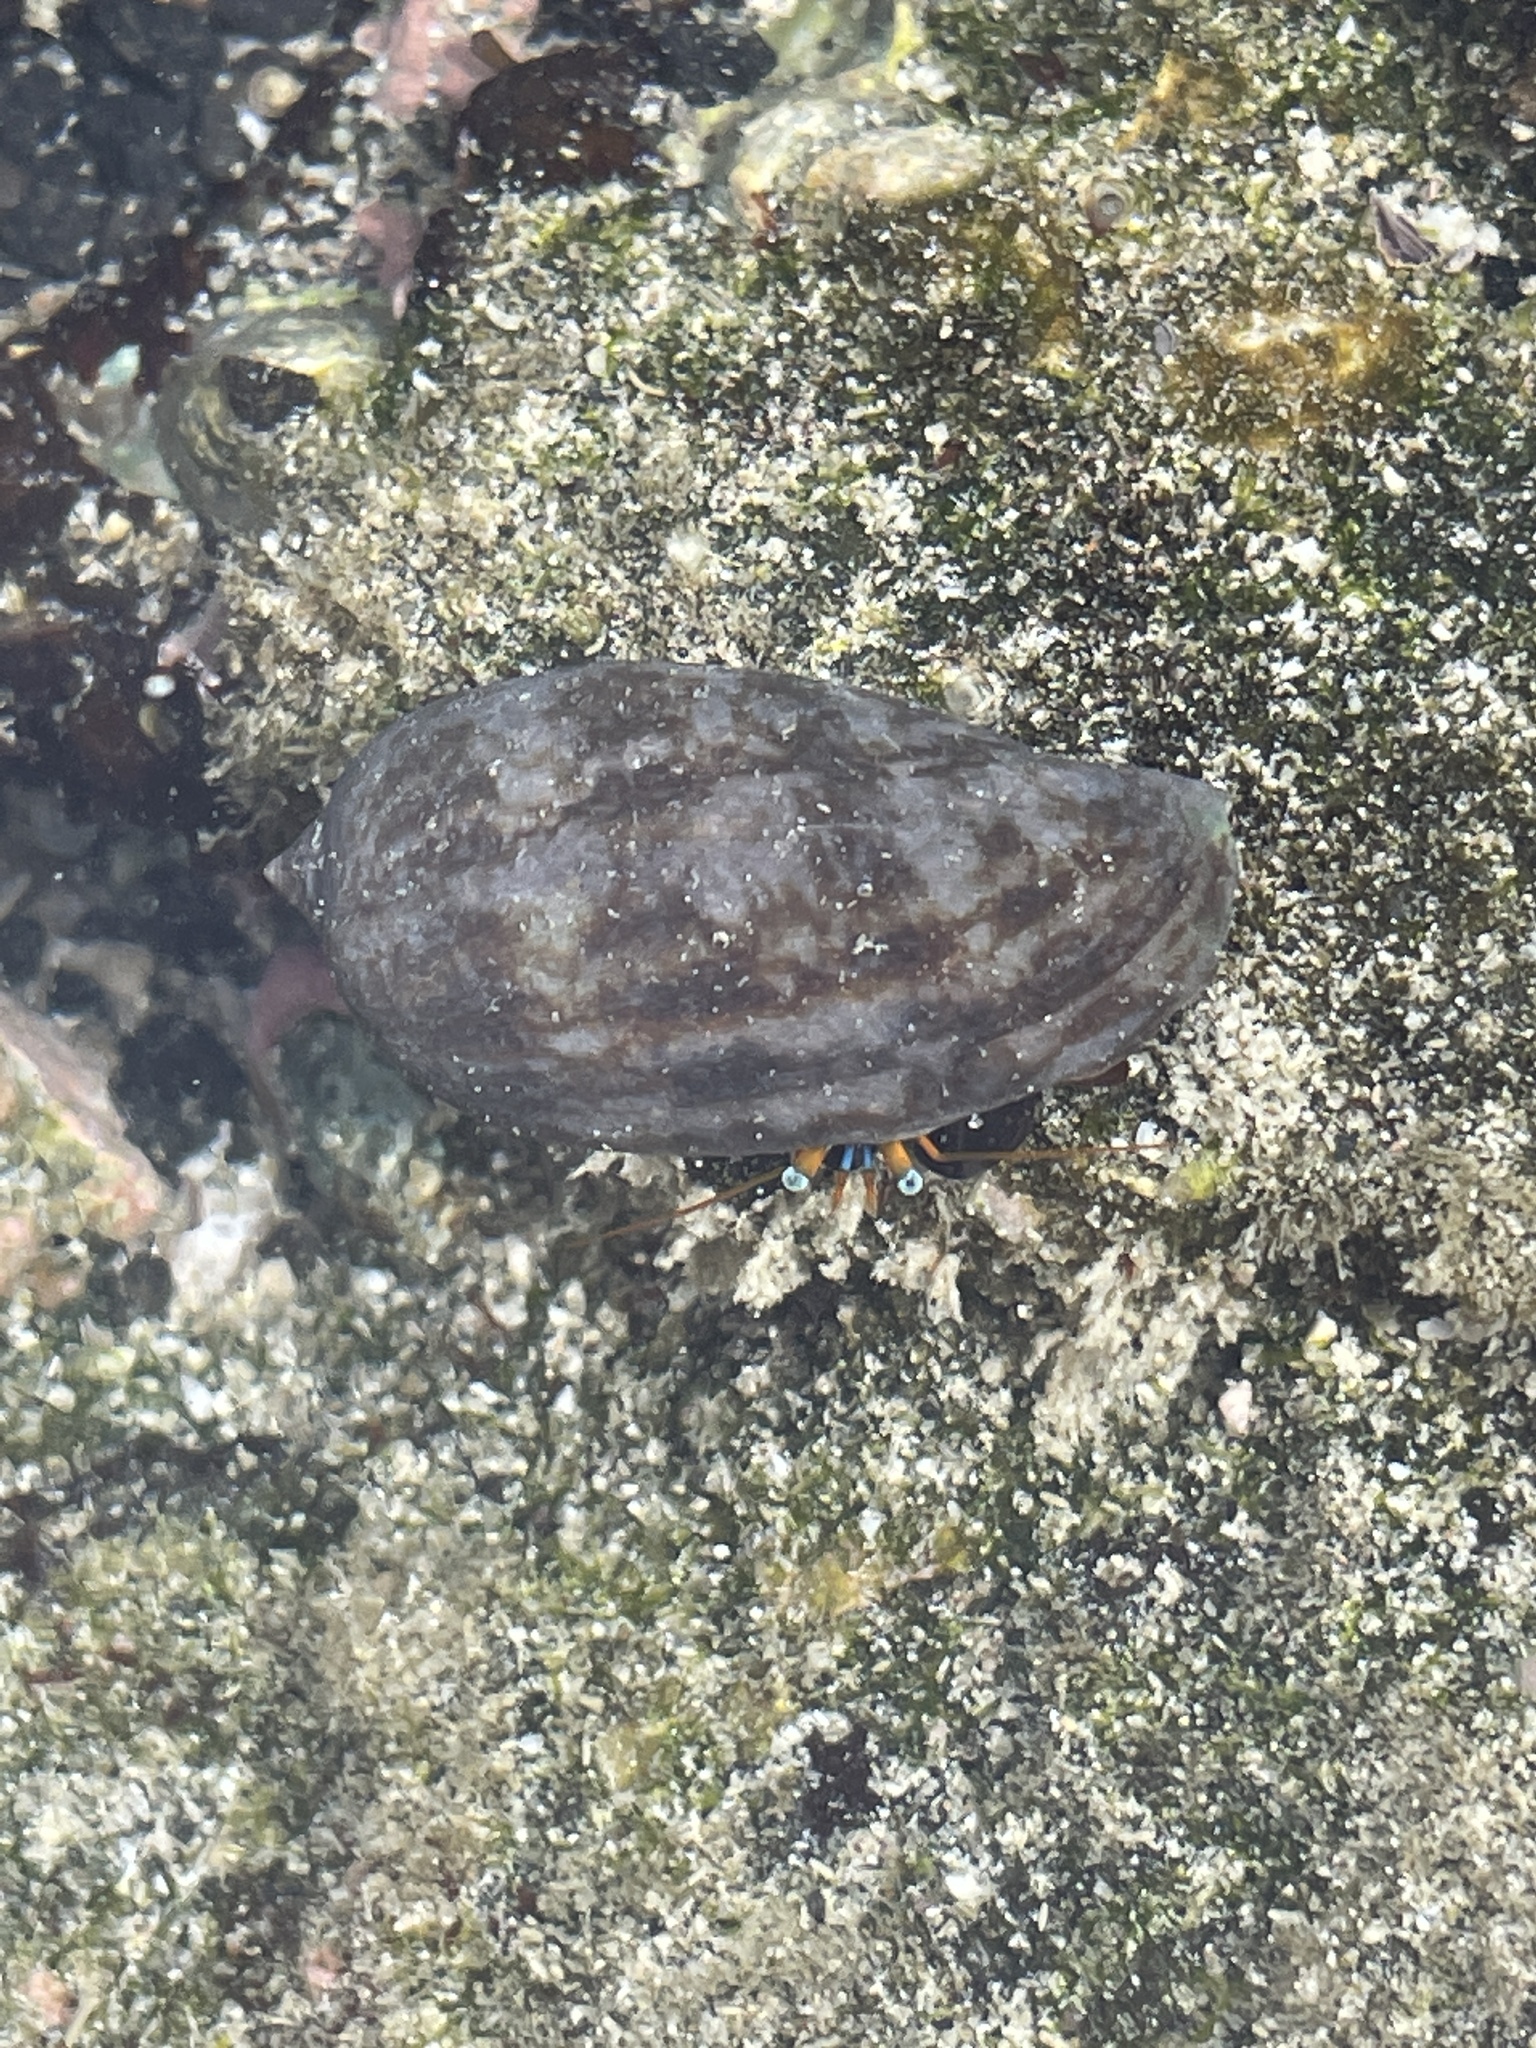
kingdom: Animalia
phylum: Arthropoda
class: Malacostraca
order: Decapoda
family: Diogenidae
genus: Calcinus
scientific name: Calcinus laevimanus
